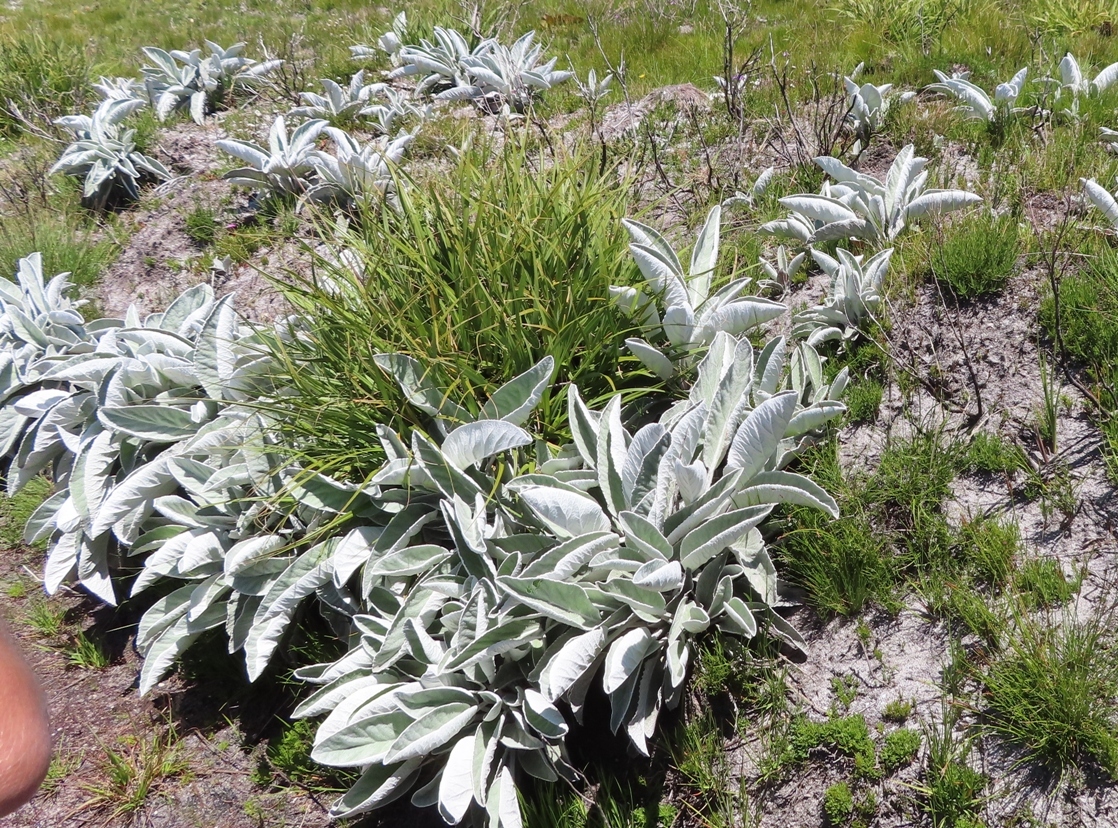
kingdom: Plantae
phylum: Tracheophyta
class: Magnoliopsida
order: Apiales
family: Apiaceae
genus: Hermas
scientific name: Hermas intermedia
